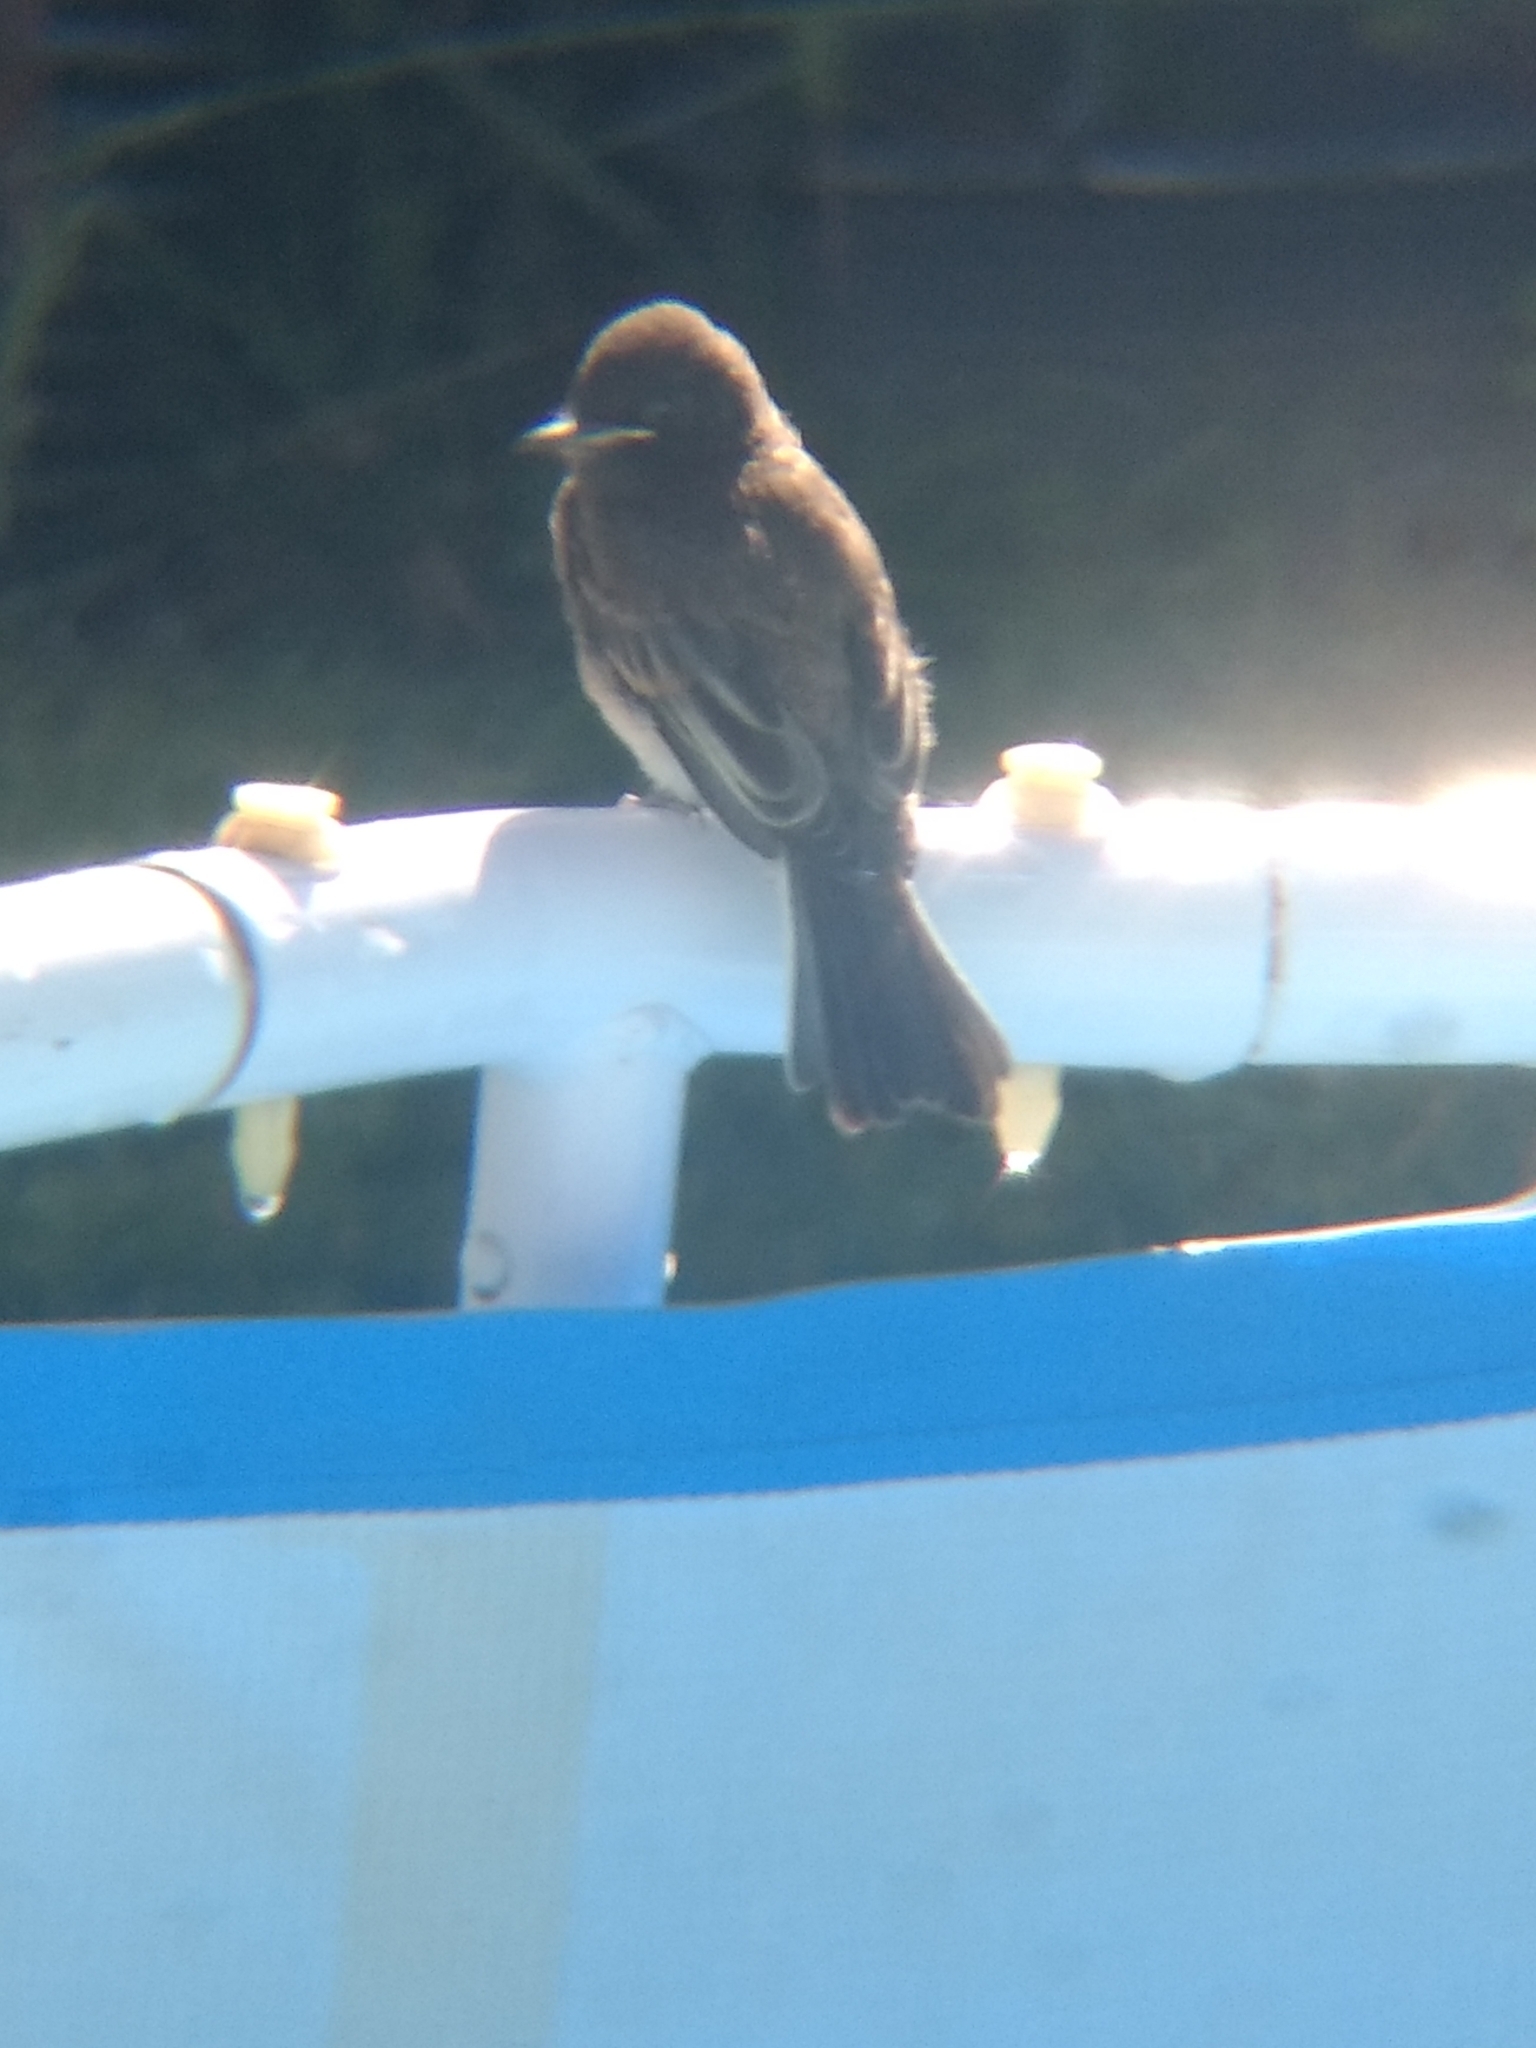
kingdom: Animalia
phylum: Chordata
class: Aves
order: Passeriformes
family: Tyrannidae
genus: Sayornis
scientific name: Sayornis nigricans
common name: Black phoebe
